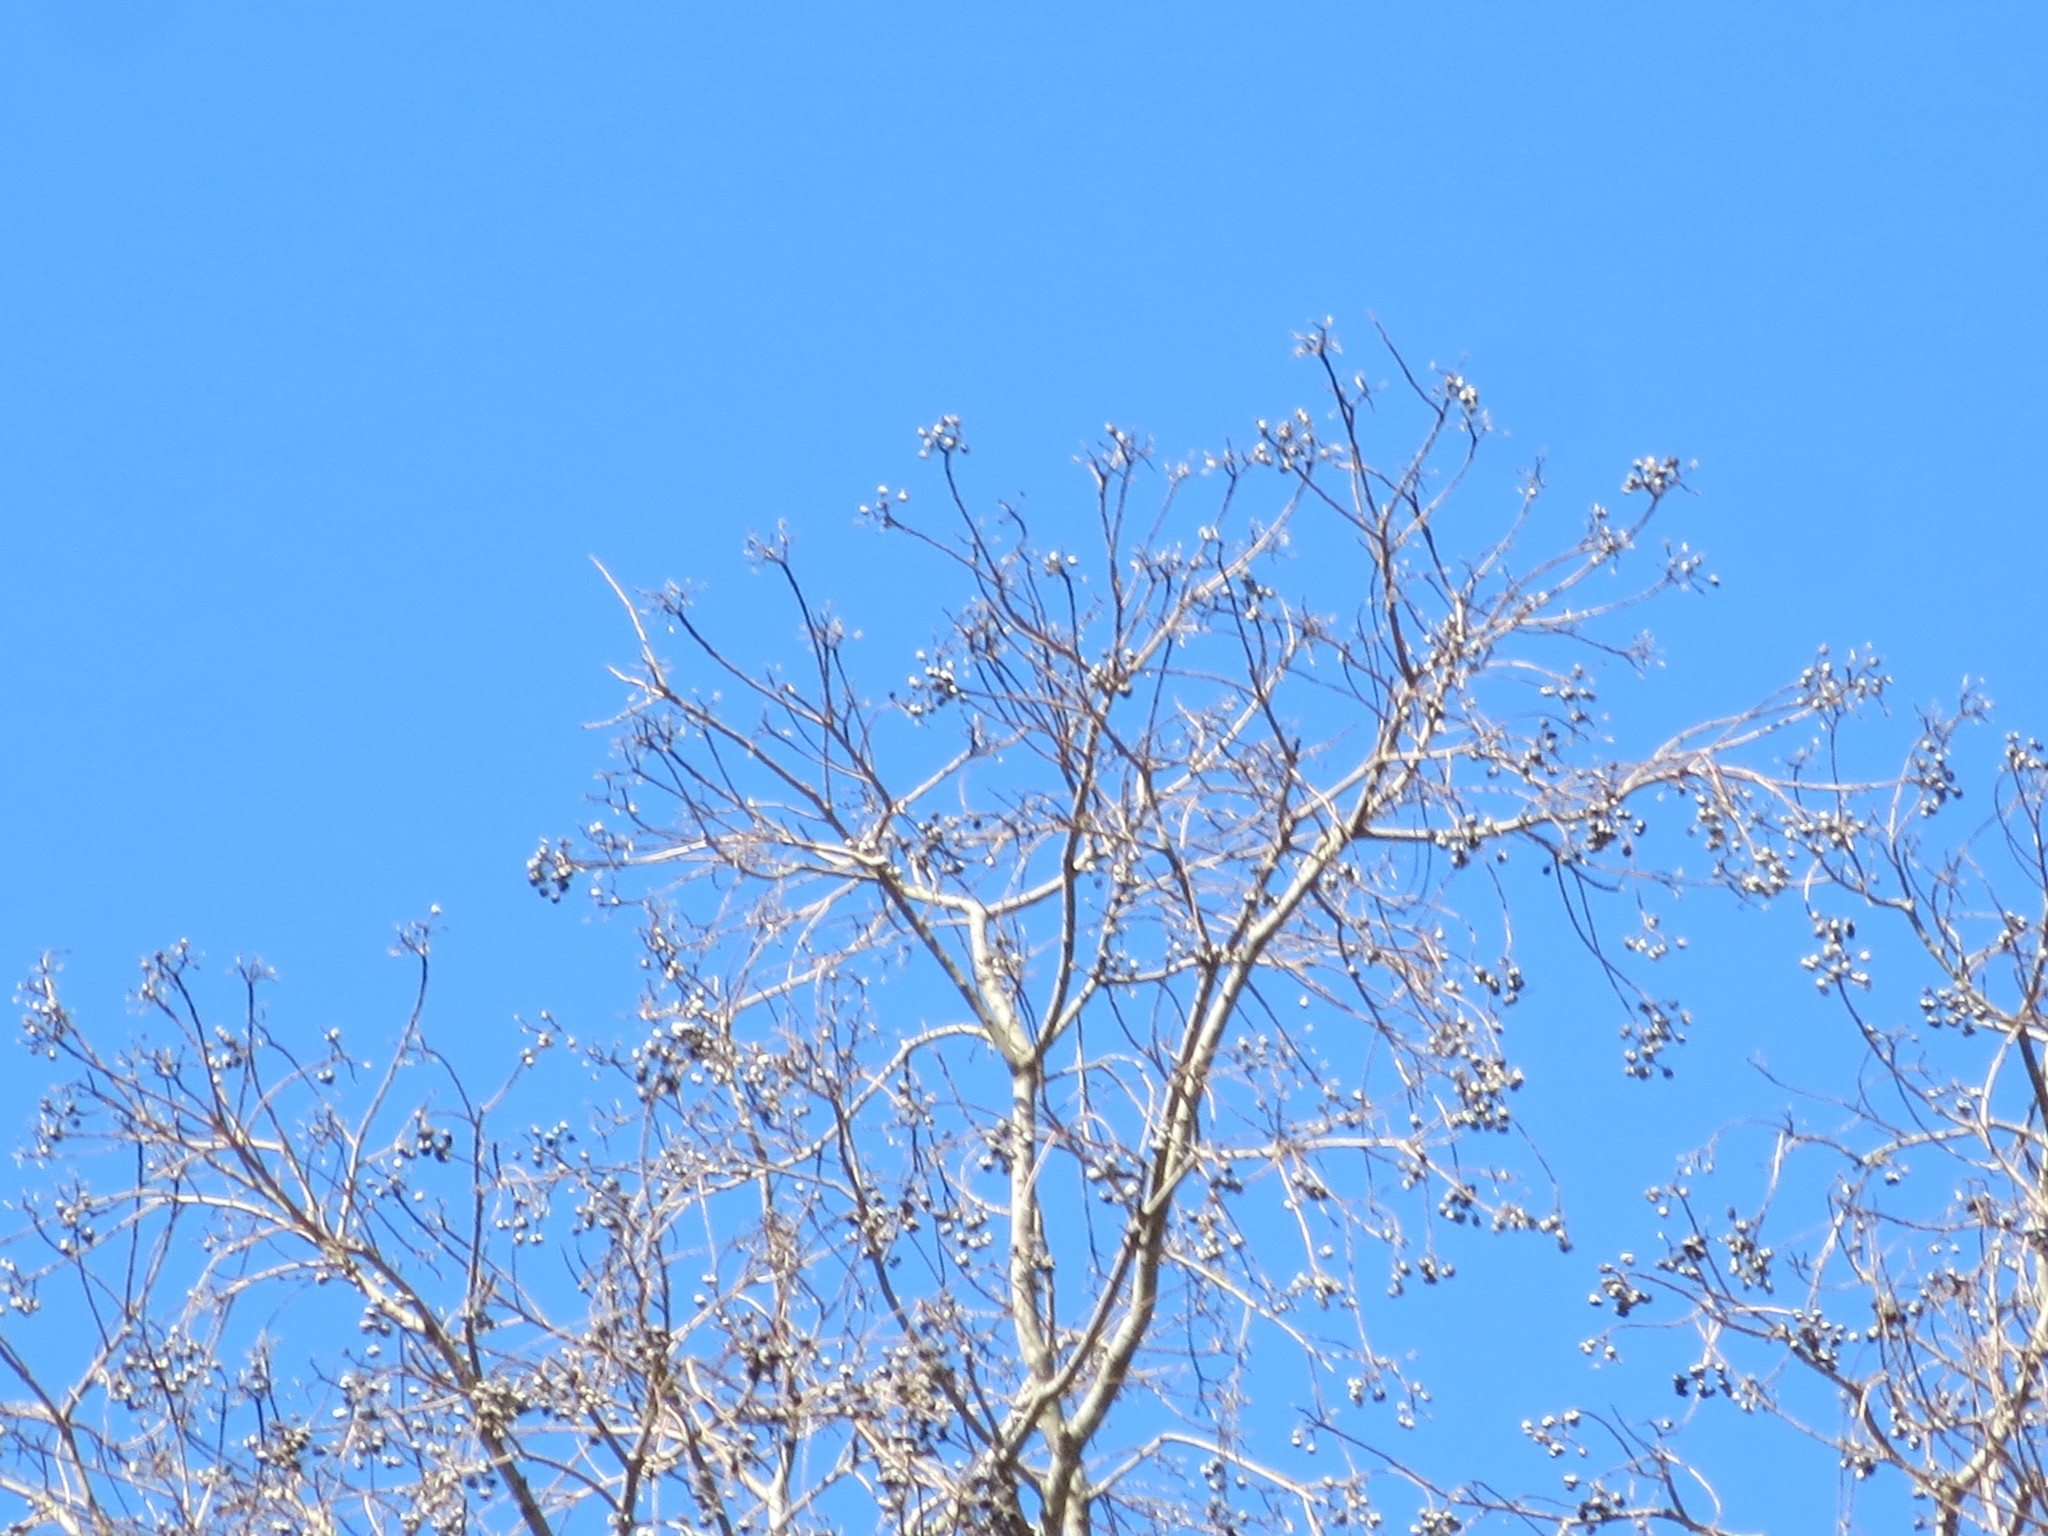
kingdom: Plantae
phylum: Tracheophyta
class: Magnoliopsida
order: Malpighiales
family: Euphorbiaceae
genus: Triadica
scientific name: Triadica sebifera
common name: Chinese tallow
